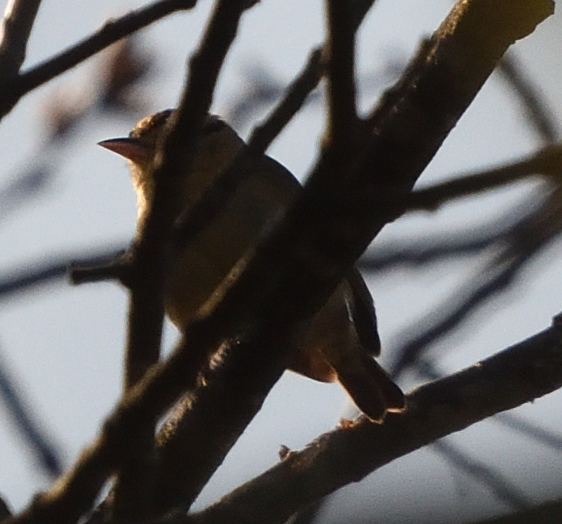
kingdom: Animalia
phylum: Chordata
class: Aves
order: Passeriformes
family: Parulidae
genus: Helmitheros
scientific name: Helmitheros vermivorum
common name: Worm-eating warbler
